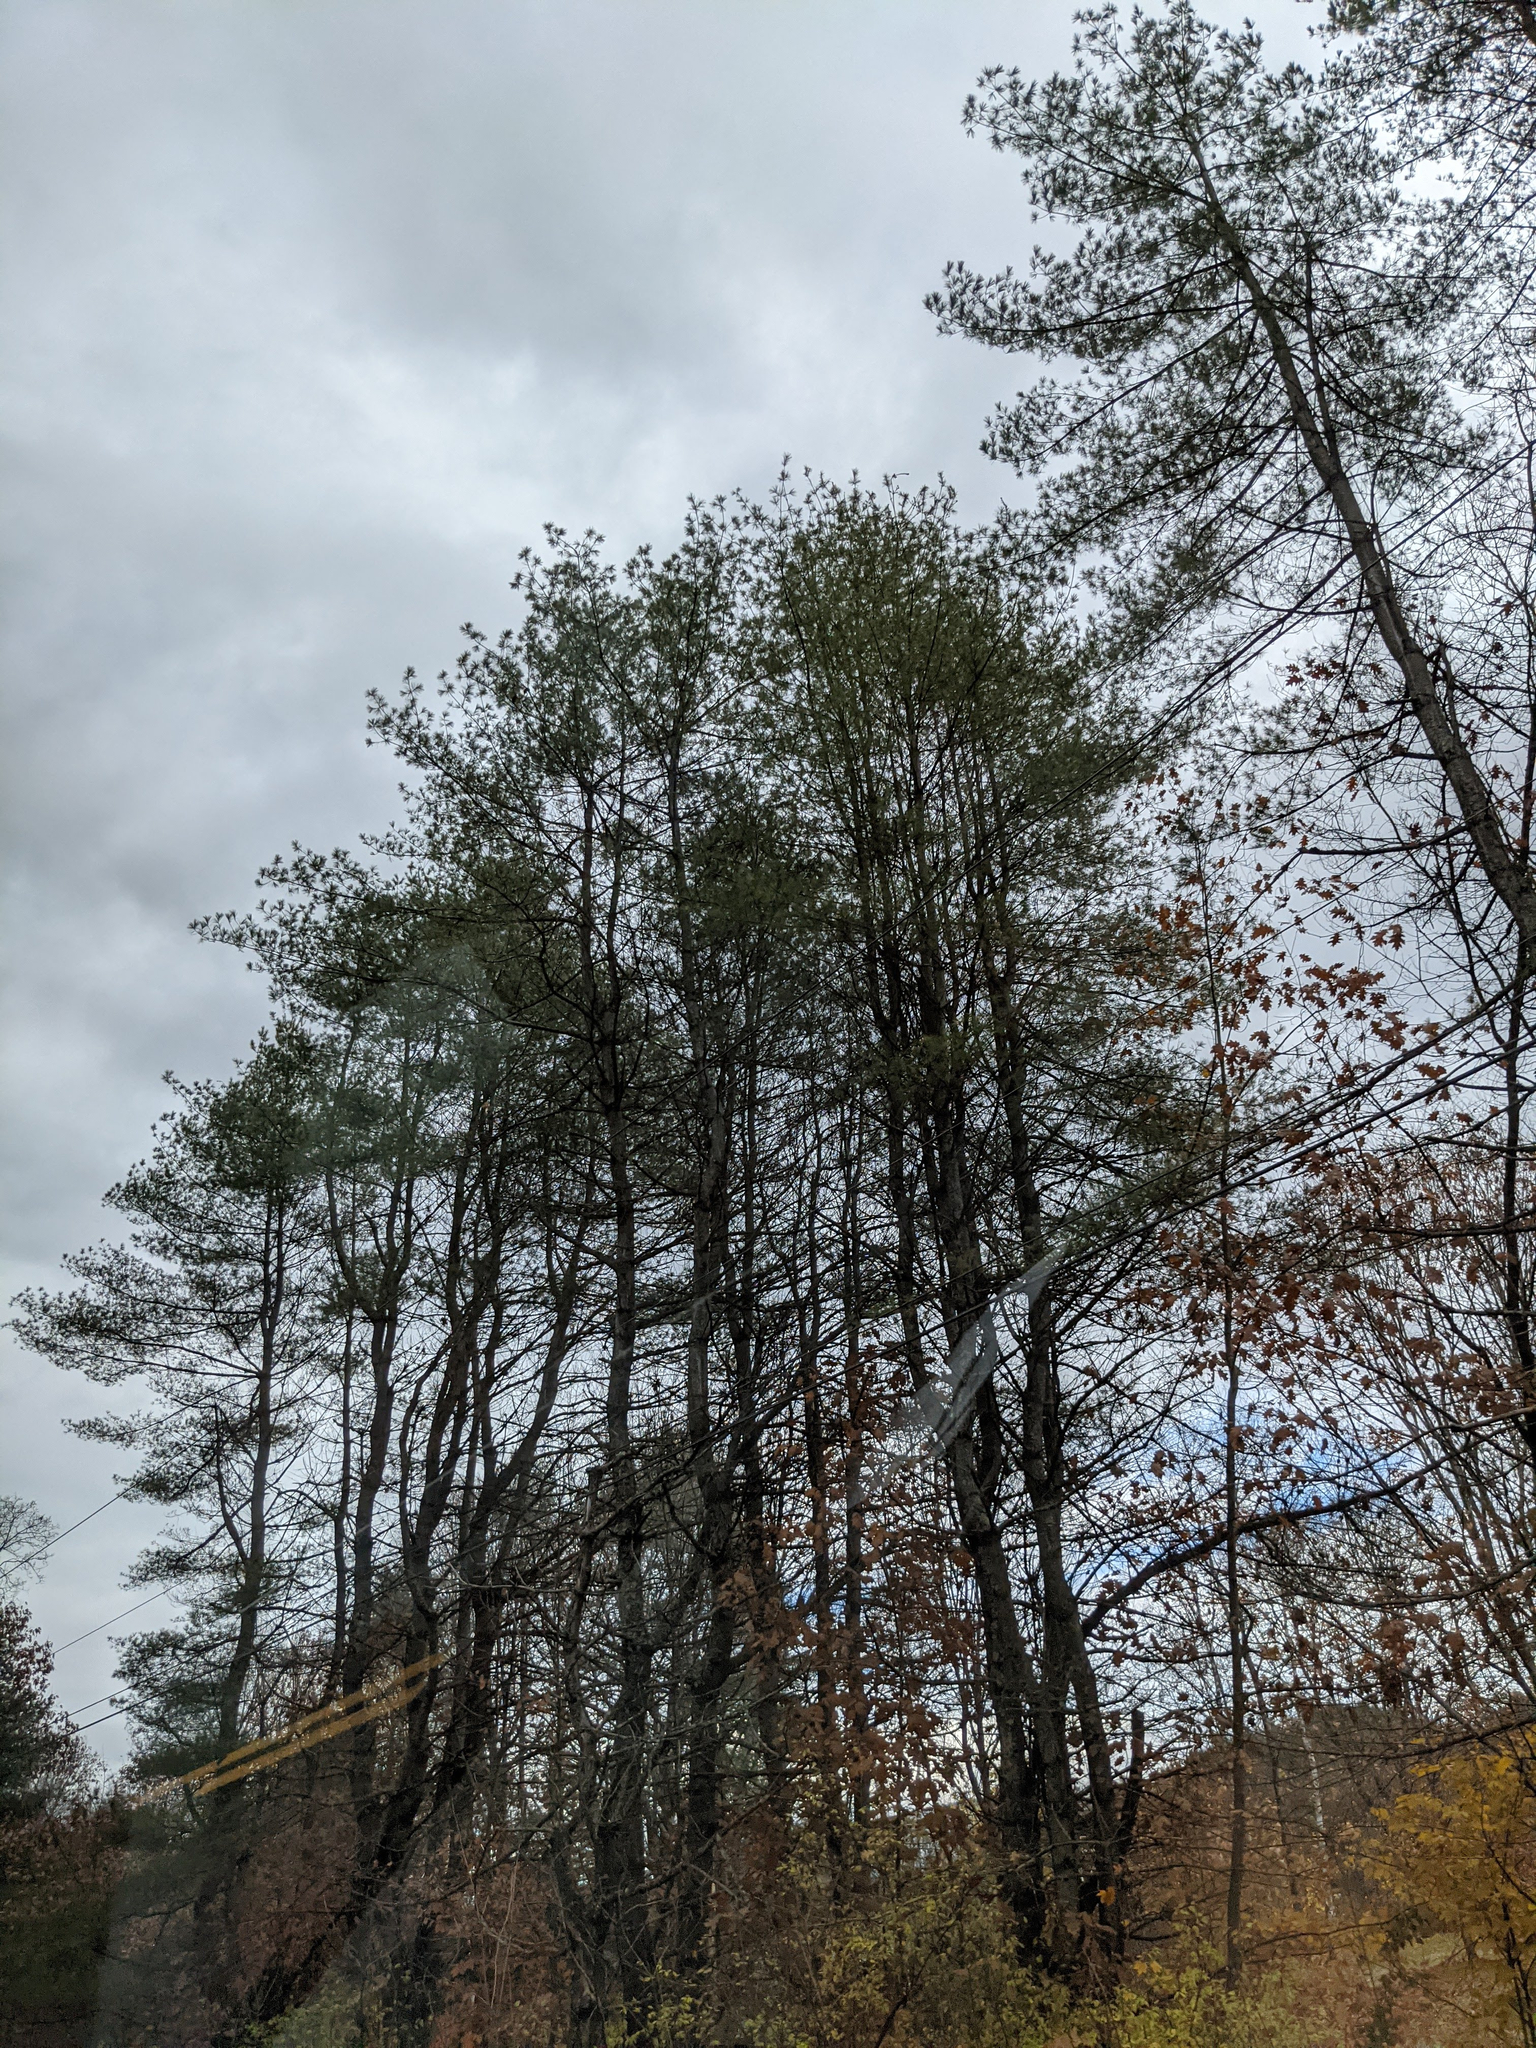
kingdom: Plantae
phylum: Tracheophyta
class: Pinopsida
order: Pinales
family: Pinaceae
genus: Pinus
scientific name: Pinus strobus
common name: Weymouth pine
